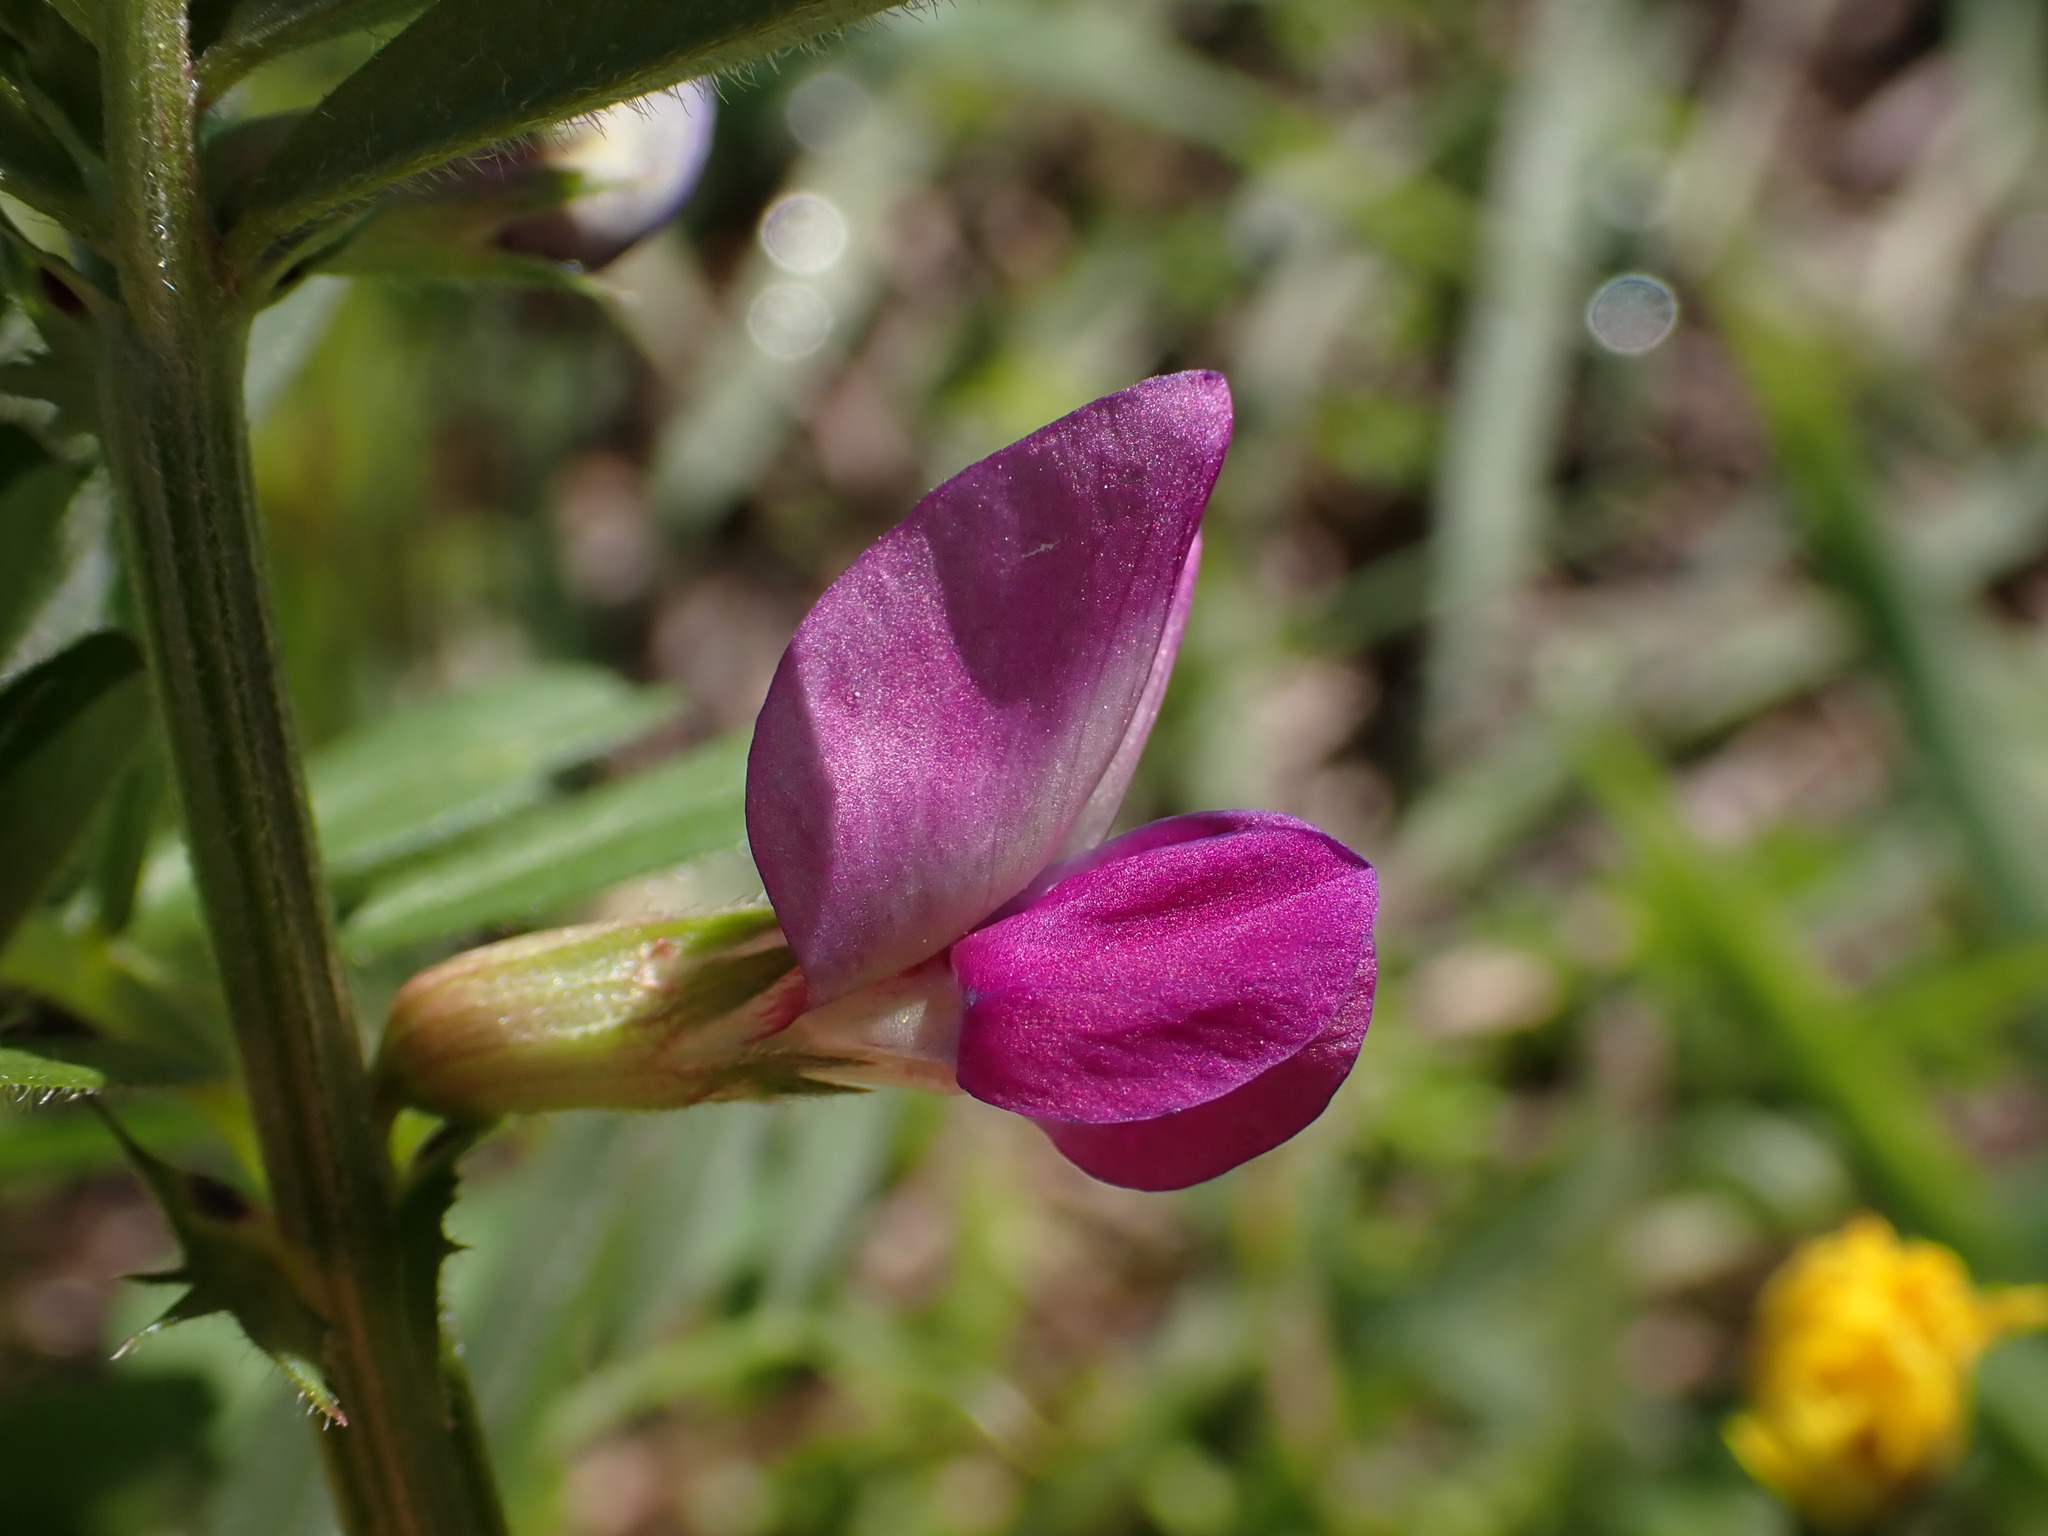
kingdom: Plantae
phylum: Tracheophyta
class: Magnoliopsida
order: Fabales
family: Fabaceae
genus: Vicia
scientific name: Vicia sativa
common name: Garden vetch
